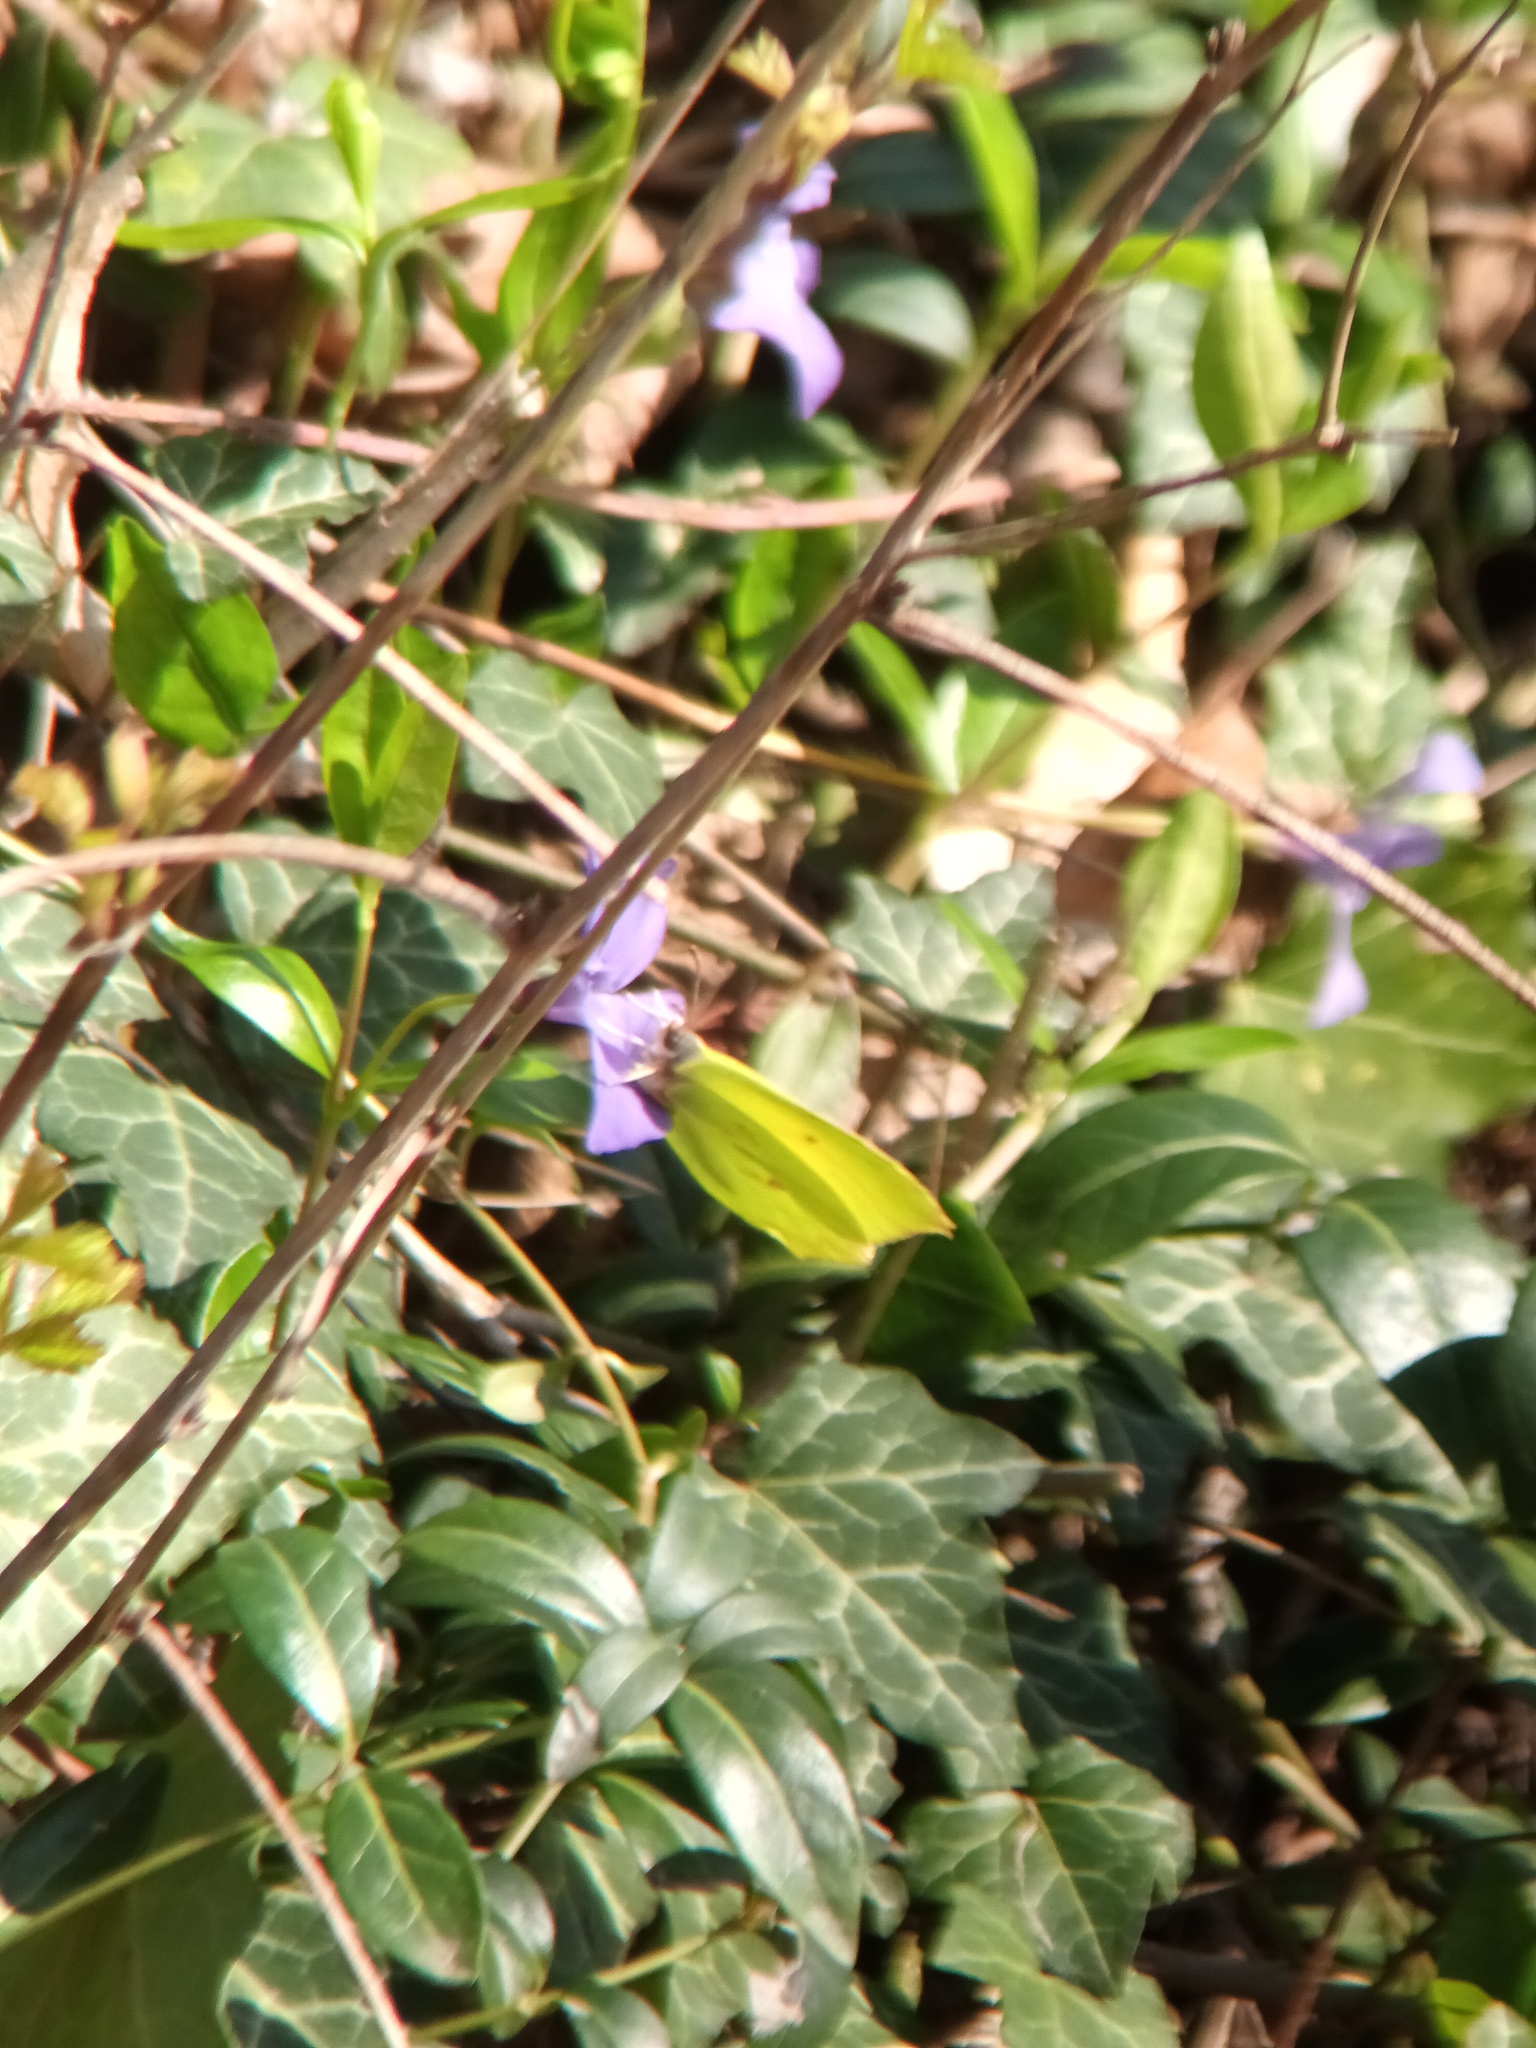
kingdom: Animalia
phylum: Arthropoda
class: Insecta
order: Lepidoptera
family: Pieridae
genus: Gonepteryx
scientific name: Gonepteryx rhamni
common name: Brimstone
